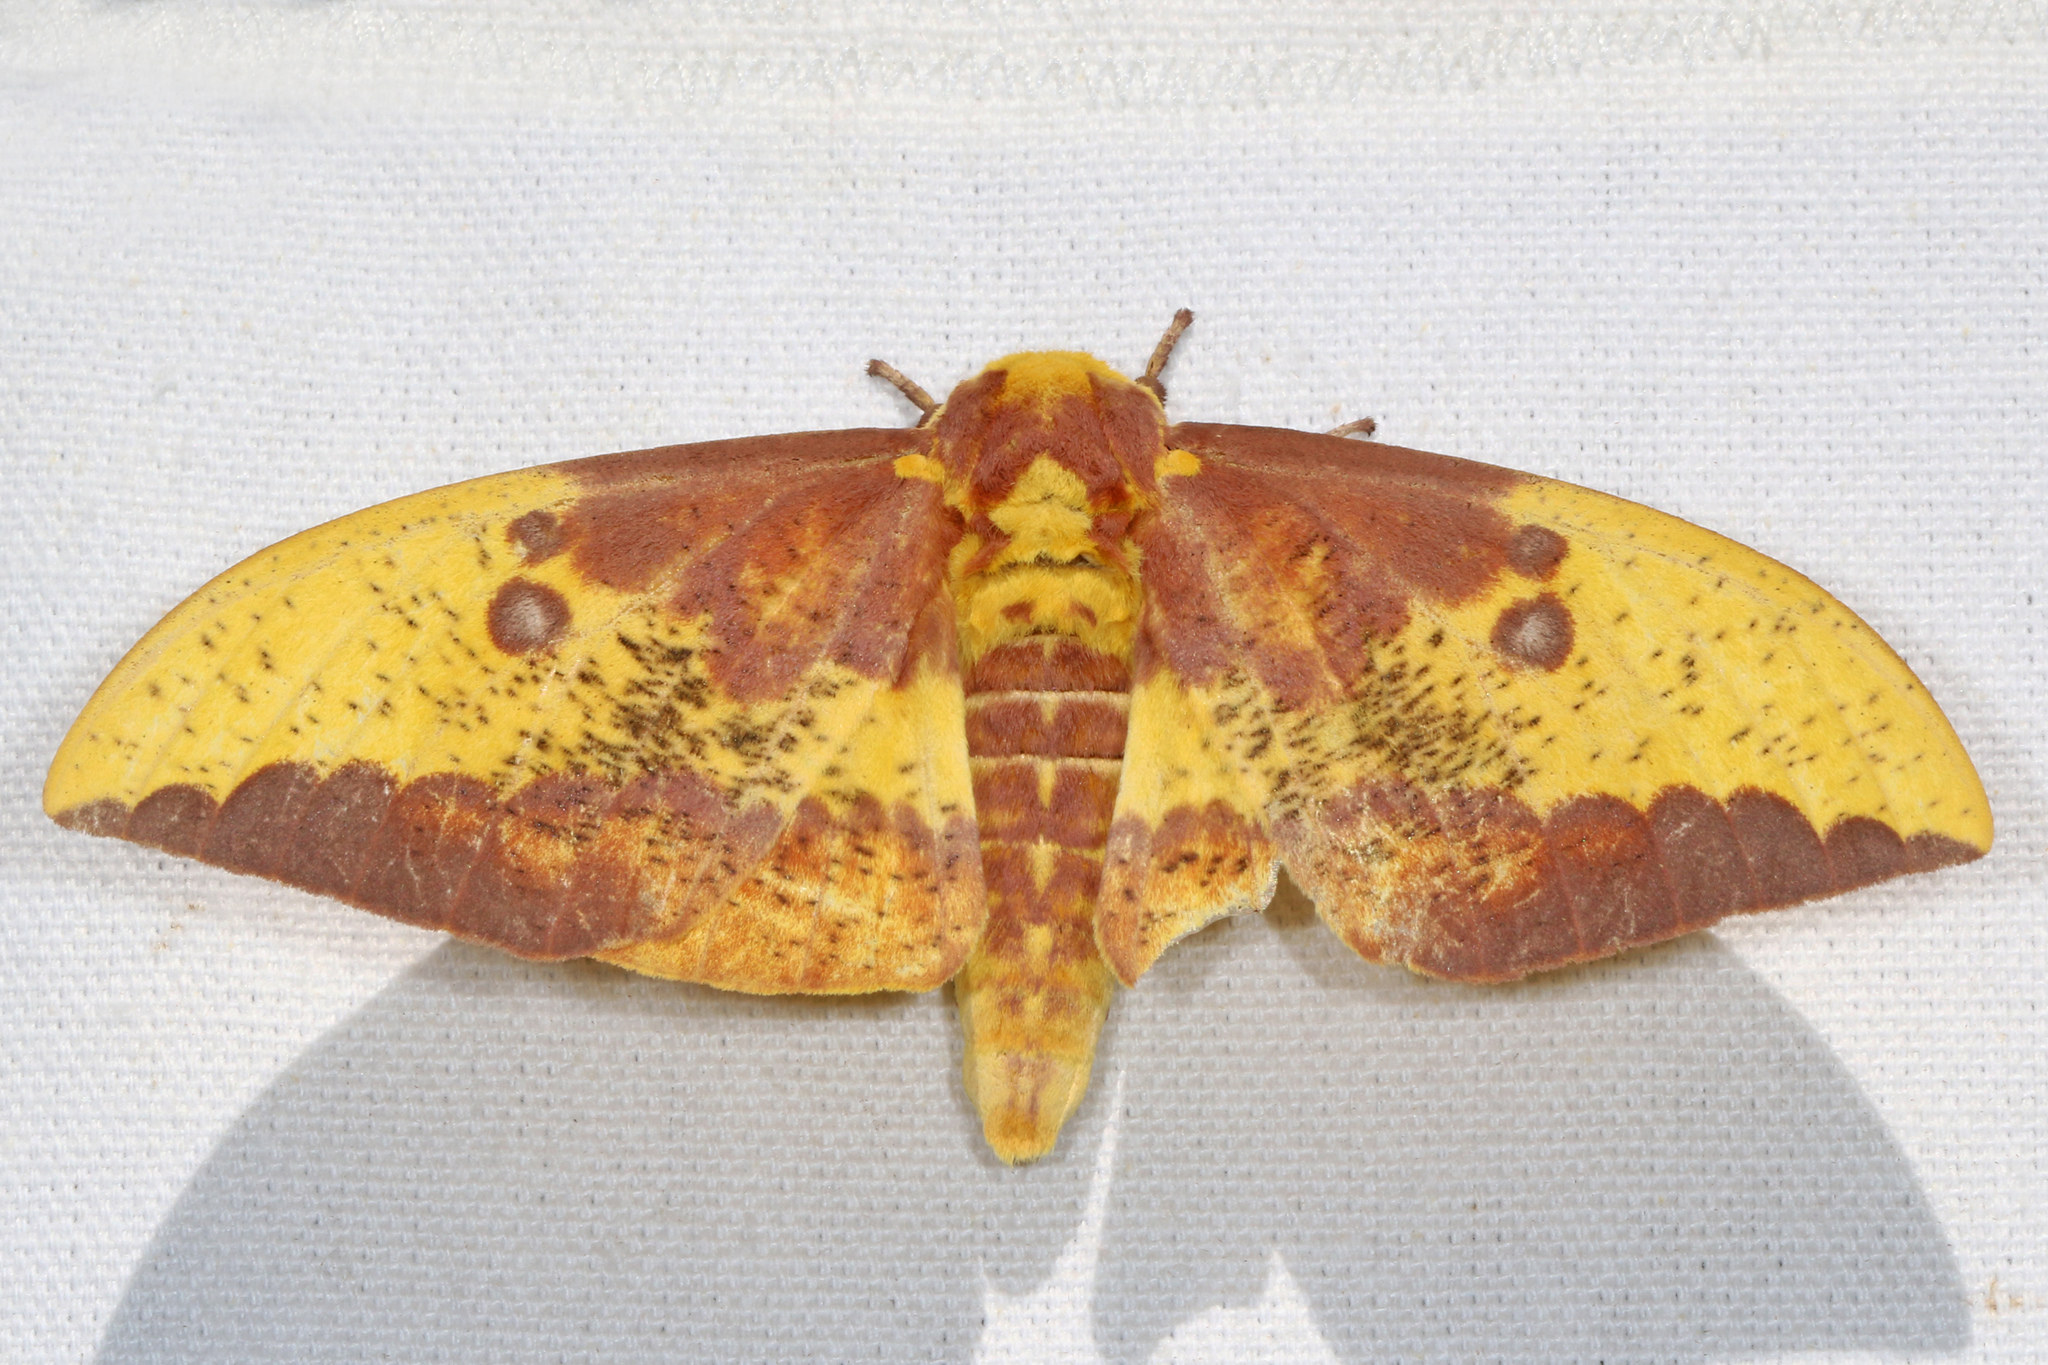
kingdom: Animalia
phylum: Arthropoda
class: Insecta
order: Lepidoptera
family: Saturniidae
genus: Eacles
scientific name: Eacles imperialis
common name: Imperial moth
